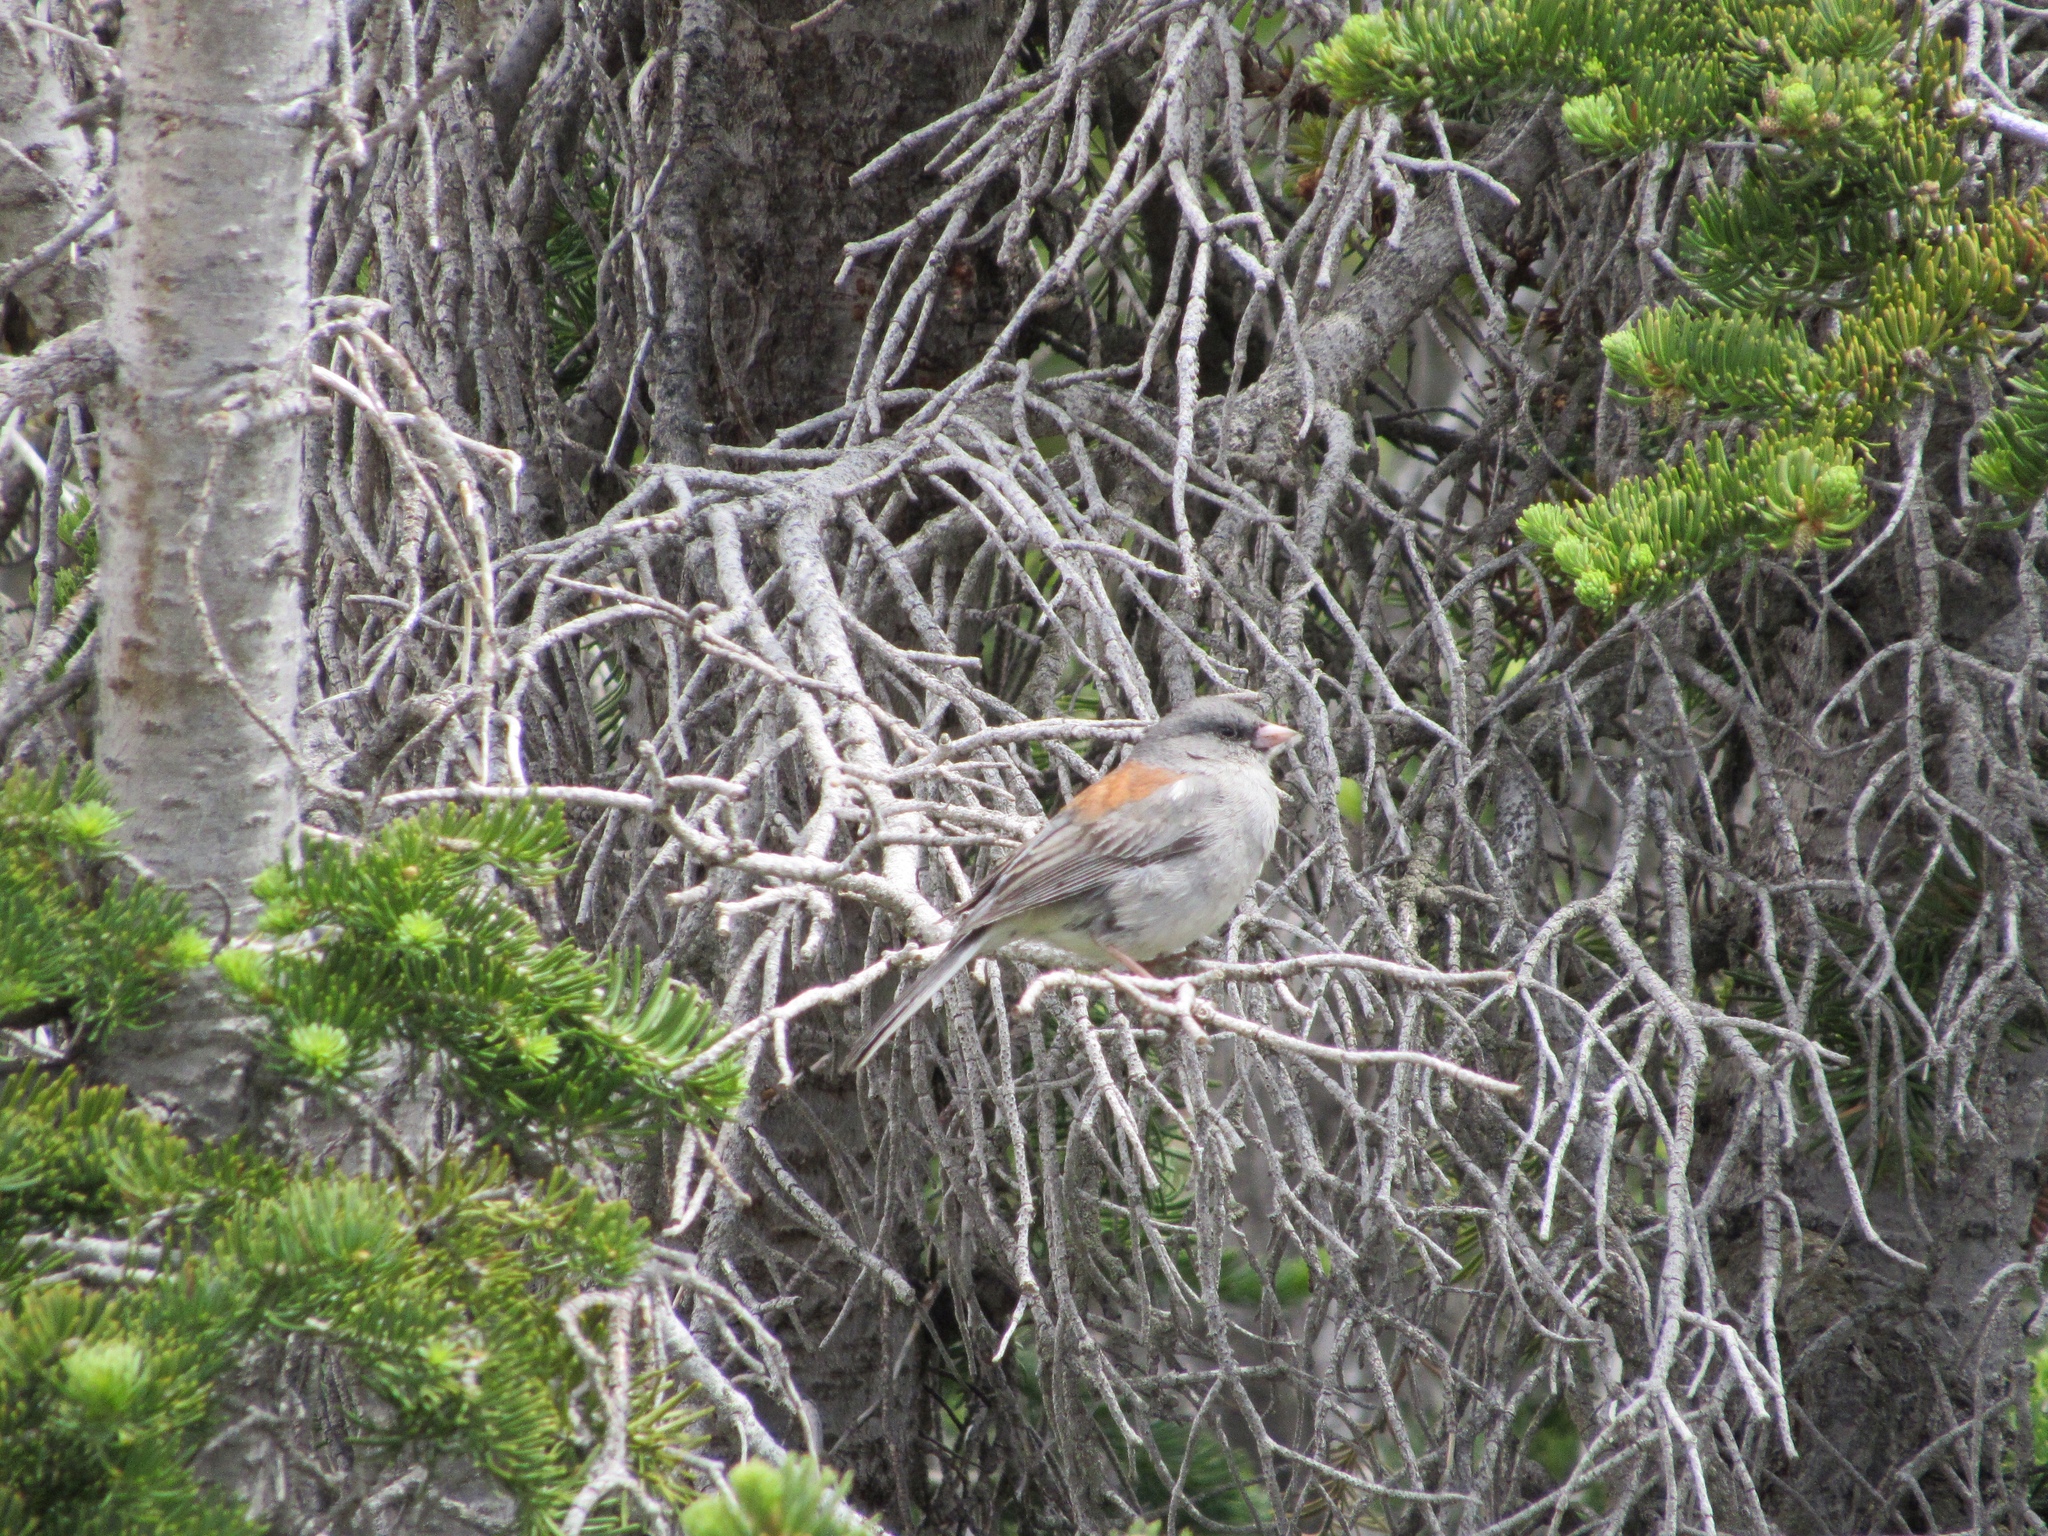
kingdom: Animalia
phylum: Chordata
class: Aves
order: Passeriformes
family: Passerellidae
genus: Junco
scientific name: Junco hyemalis
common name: Dark-eyed junco
